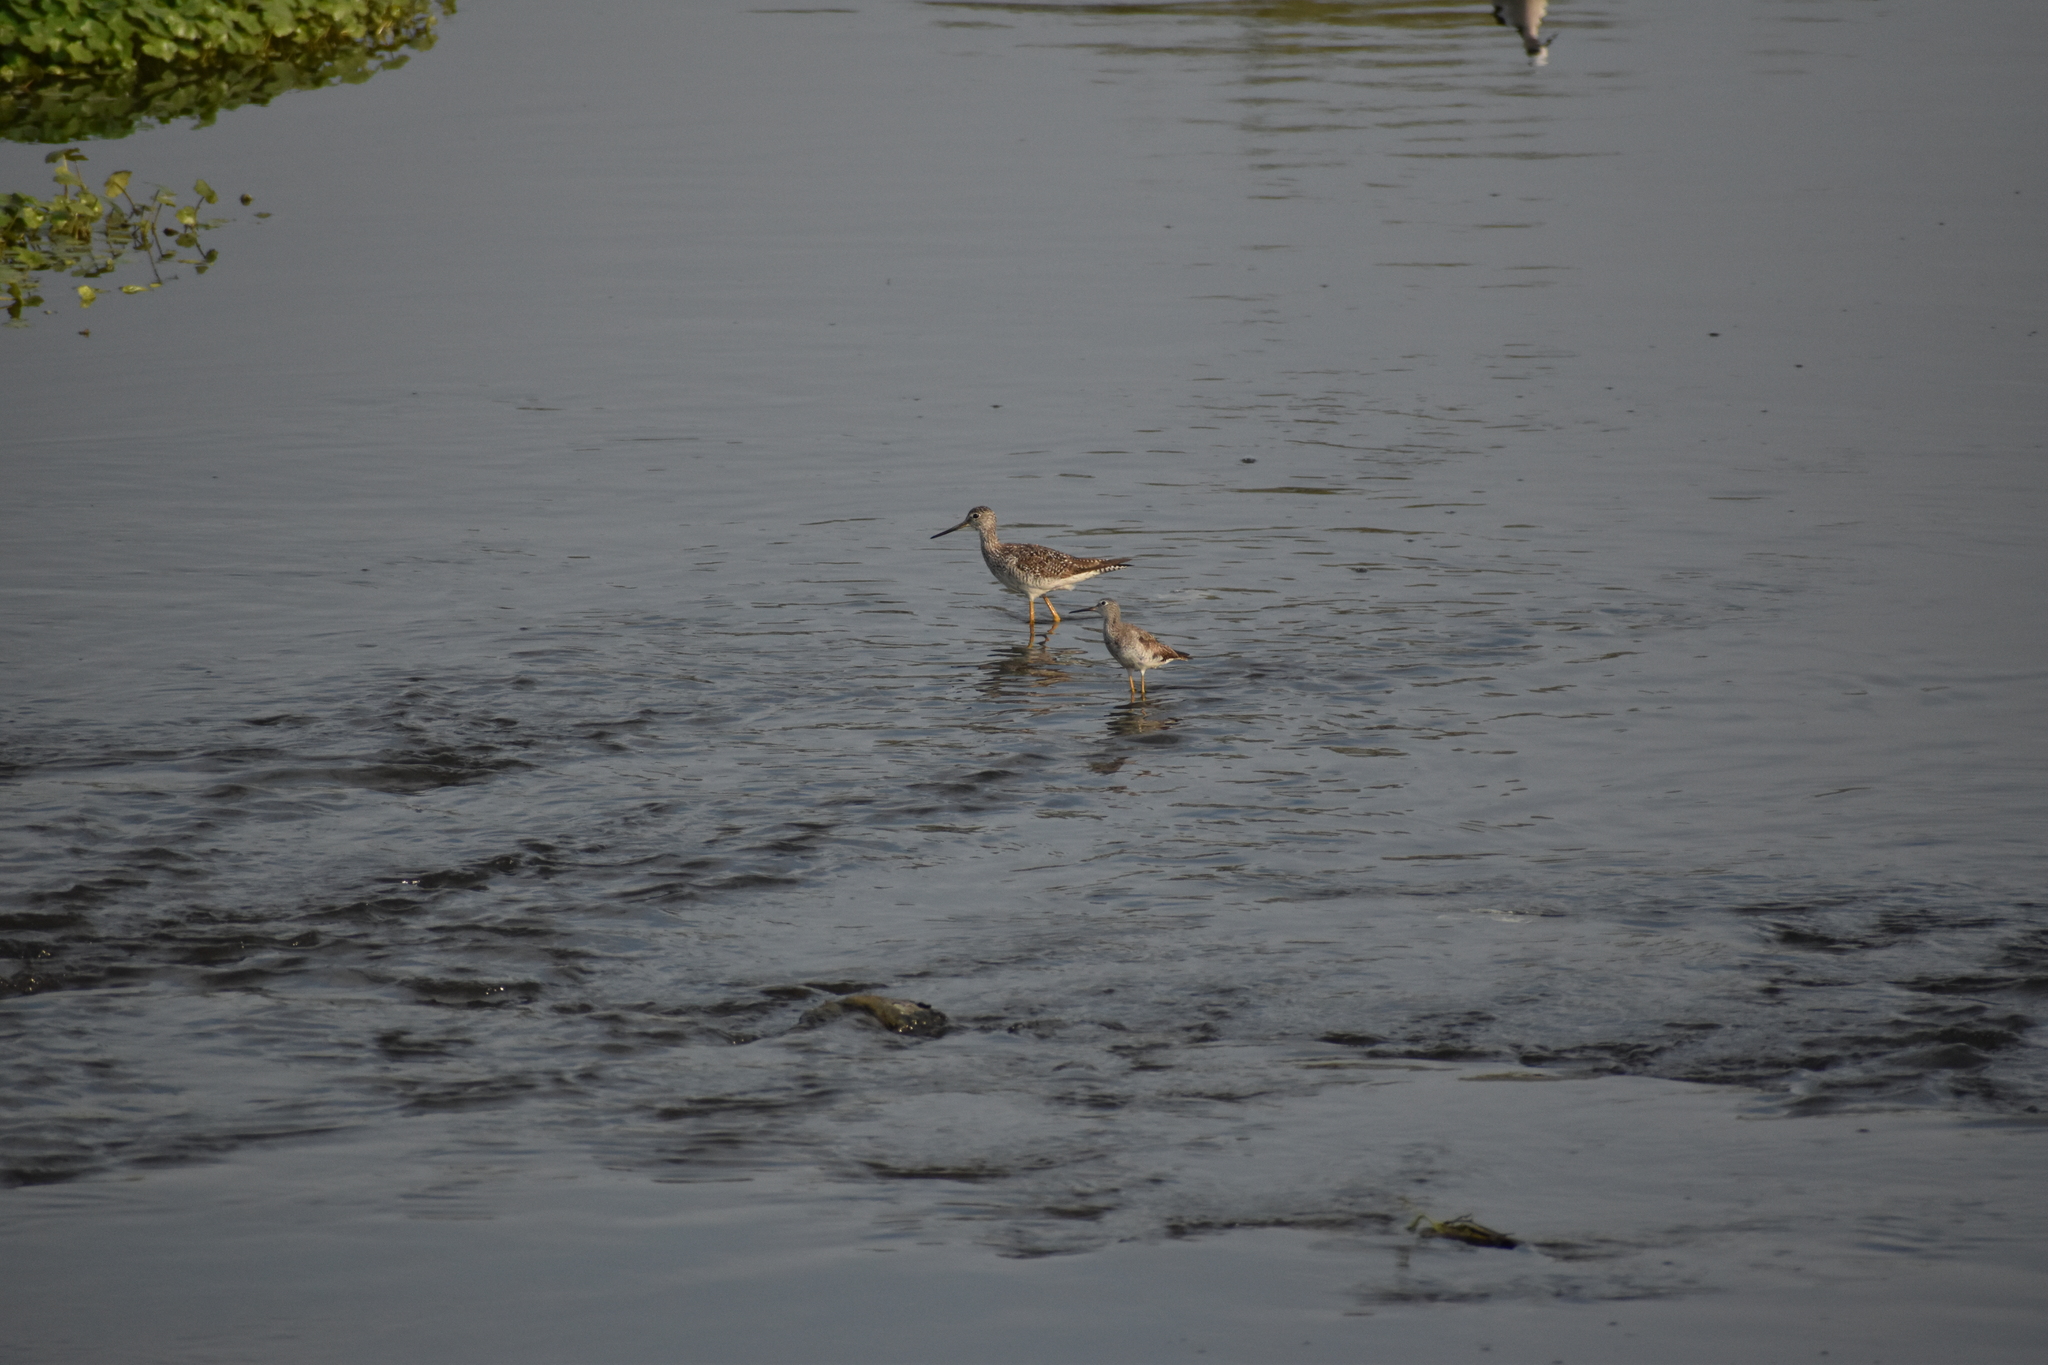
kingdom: Animalia
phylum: Chordata
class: Aves
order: Charadriiformes
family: Scolopacidae
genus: Tringa
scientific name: Tringa melanoleuca
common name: Greater yellowlegs
